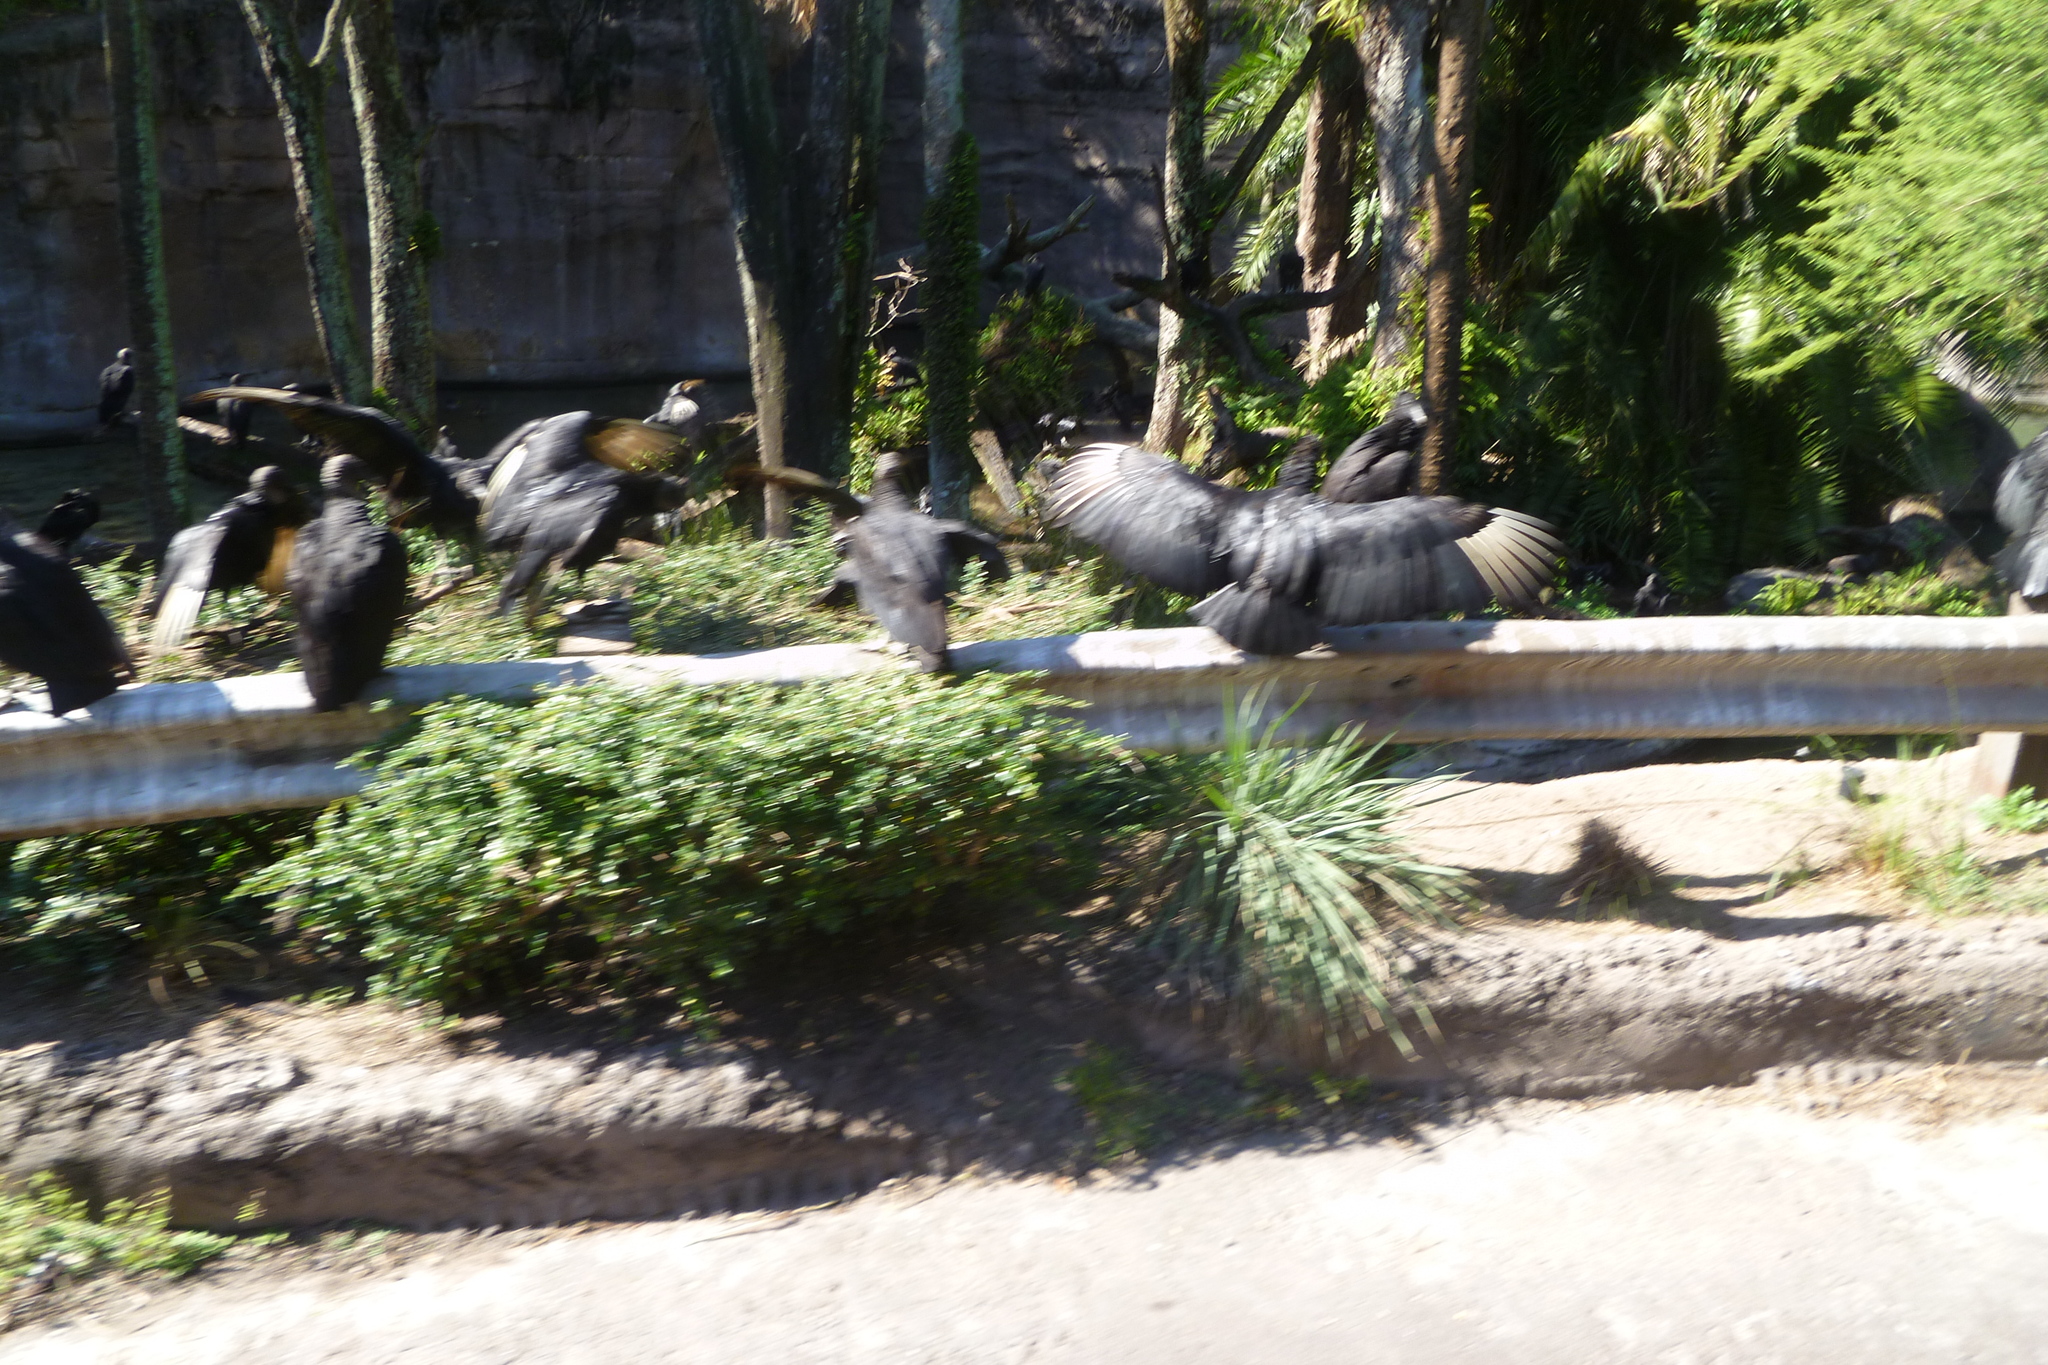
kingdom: Animalia
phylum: Chordata
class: Aves
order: Accipitriformes
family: Cathartidae
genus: Coragyps
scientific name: Coragyps atratus
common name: Black vulture
